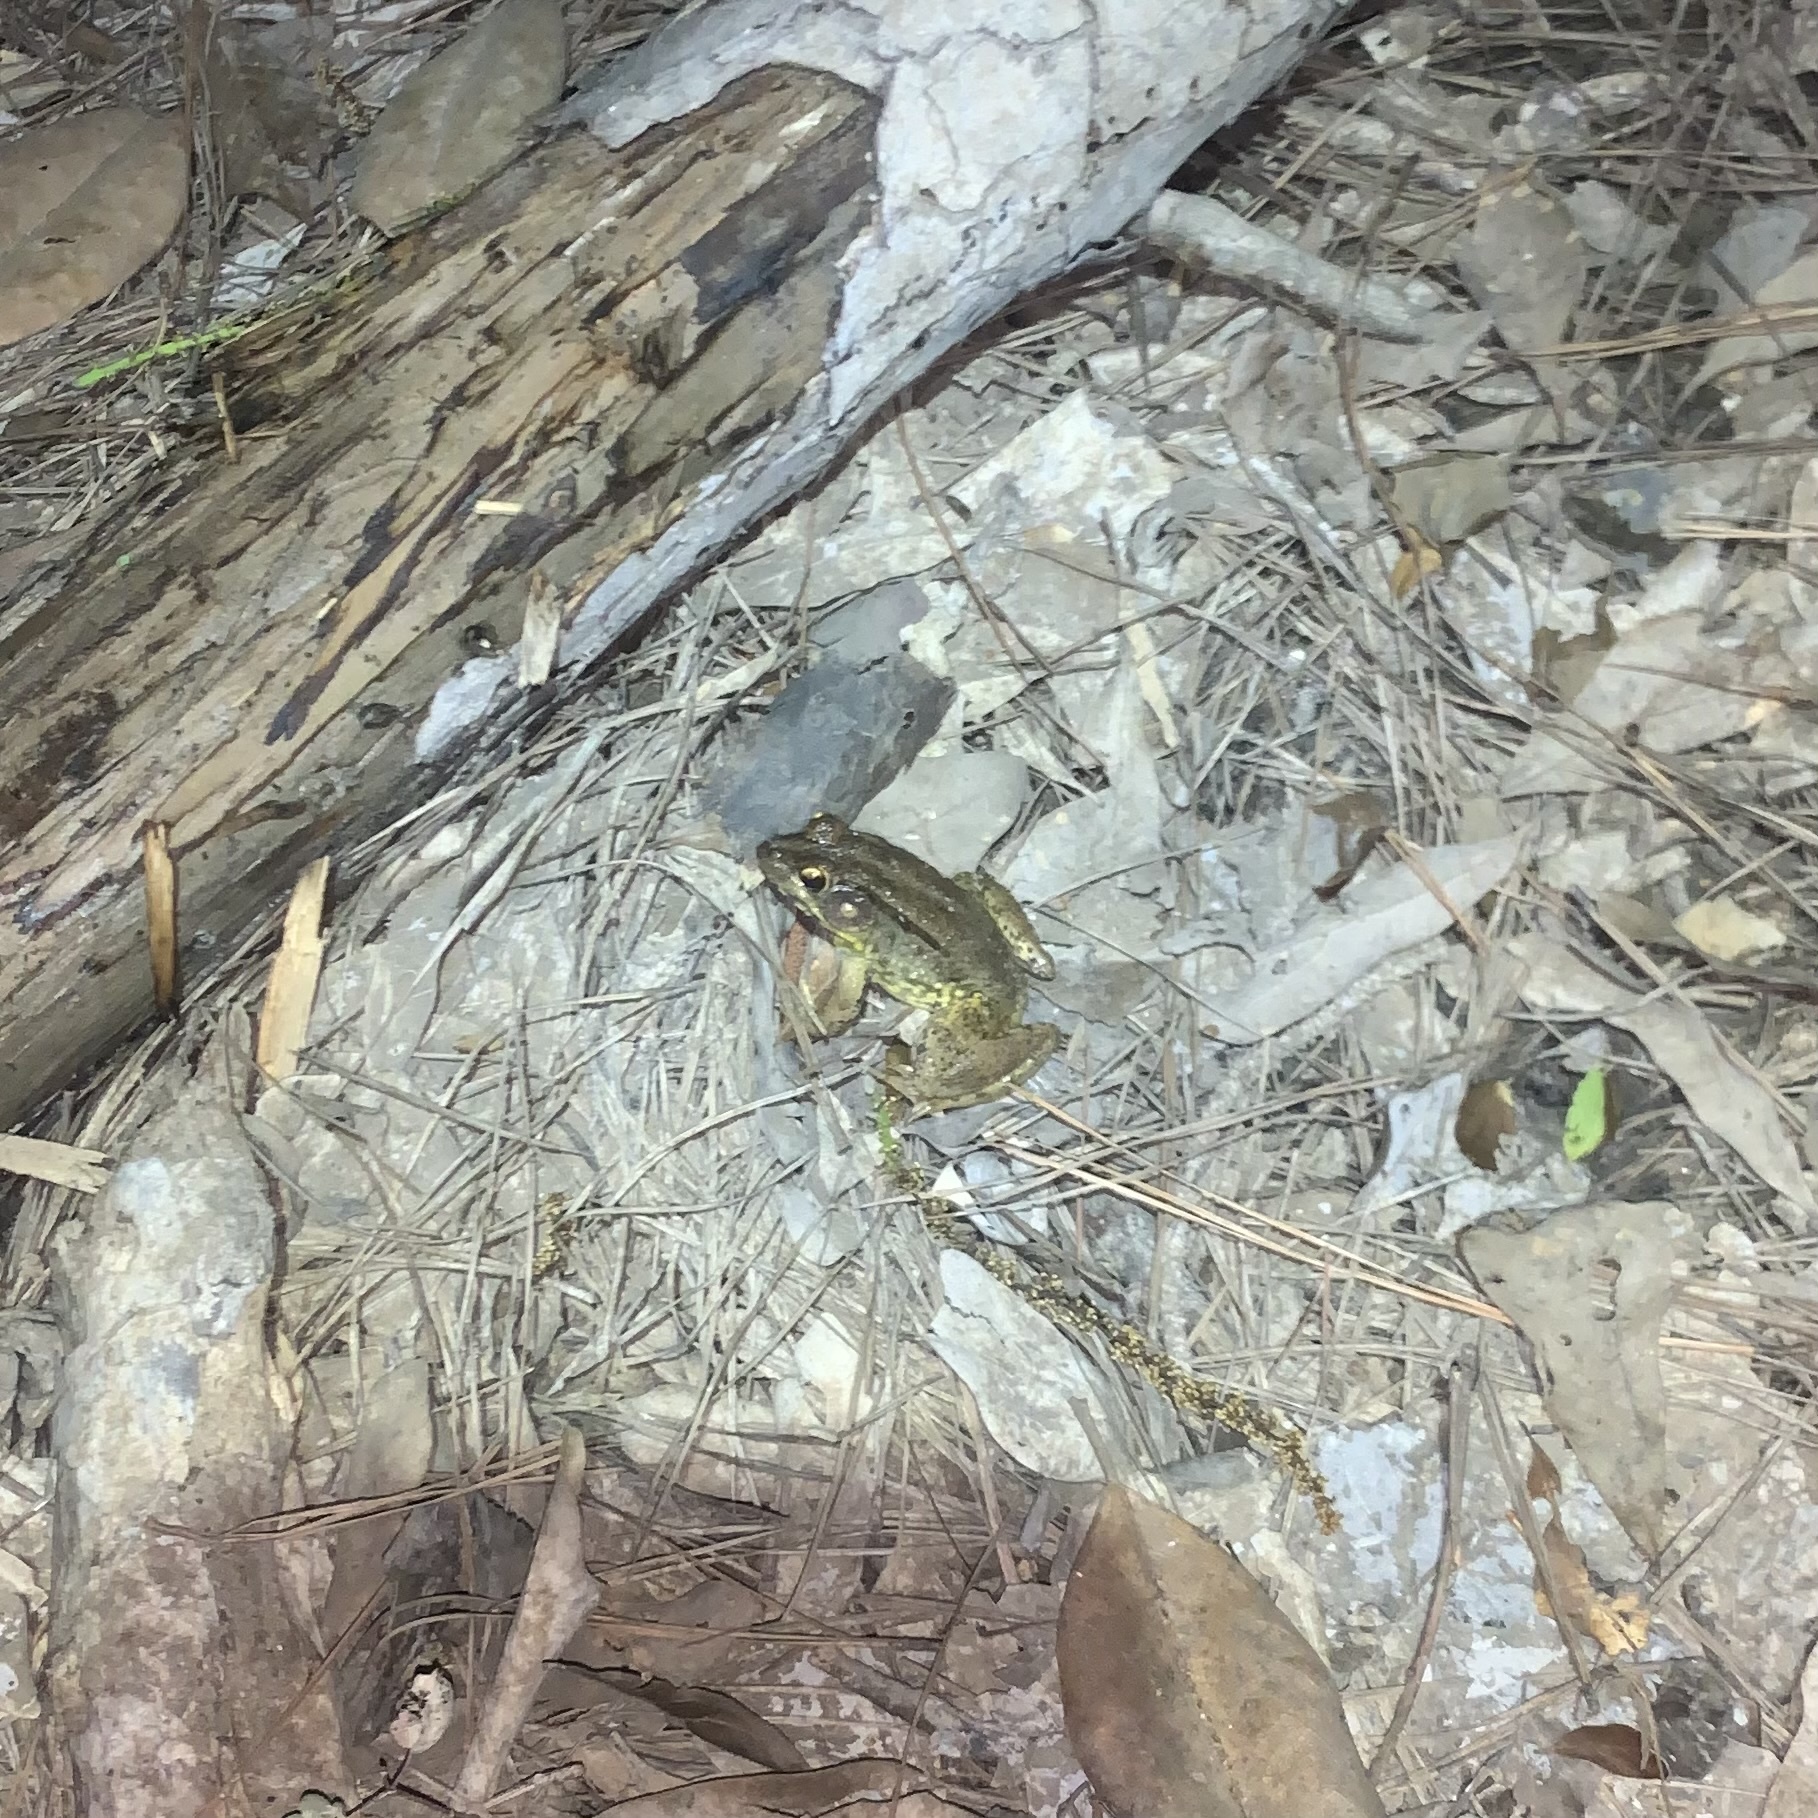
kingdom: Animalia
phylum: Chordata
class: Amphibia
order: Anura
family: Ranidae
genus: Lithobates
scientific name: Lithobates clamitans
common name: Green frog
